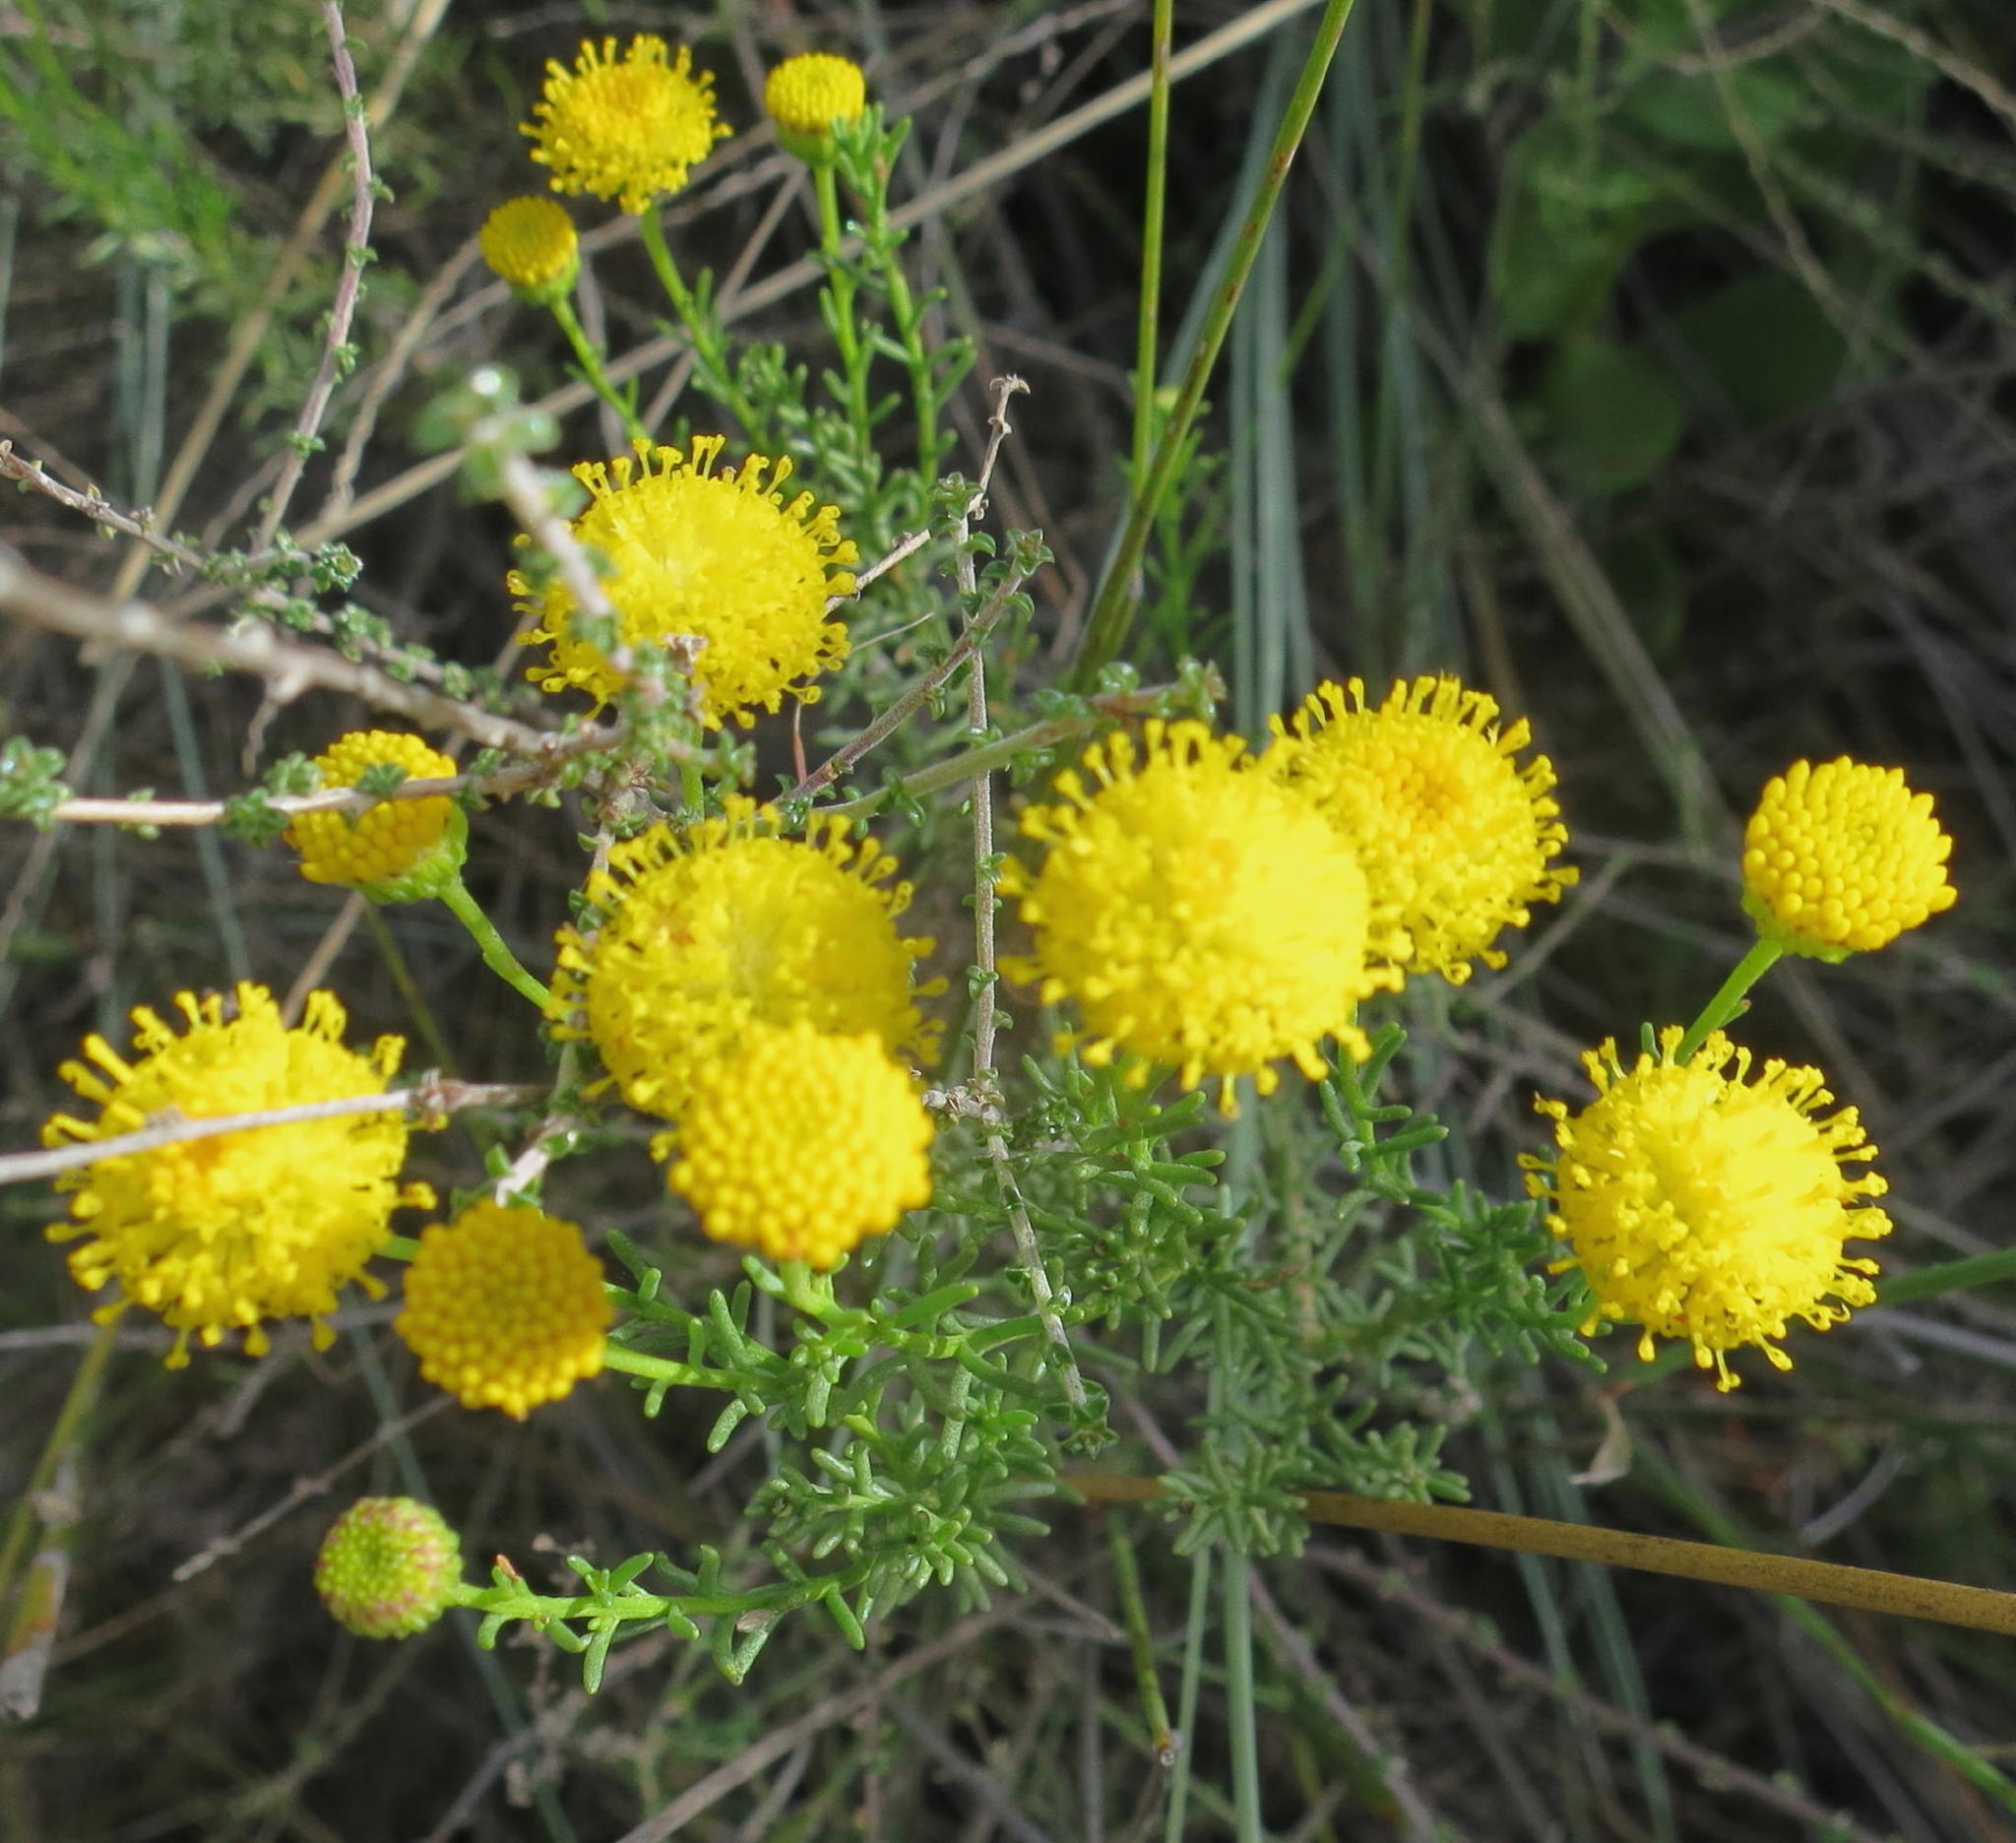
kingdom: Plantae
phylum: Tracheophyta
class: Magnoliopsida
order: Asterales
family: Asteraceae
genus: Chrysocoma
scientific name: Chrysocoma ciliata
